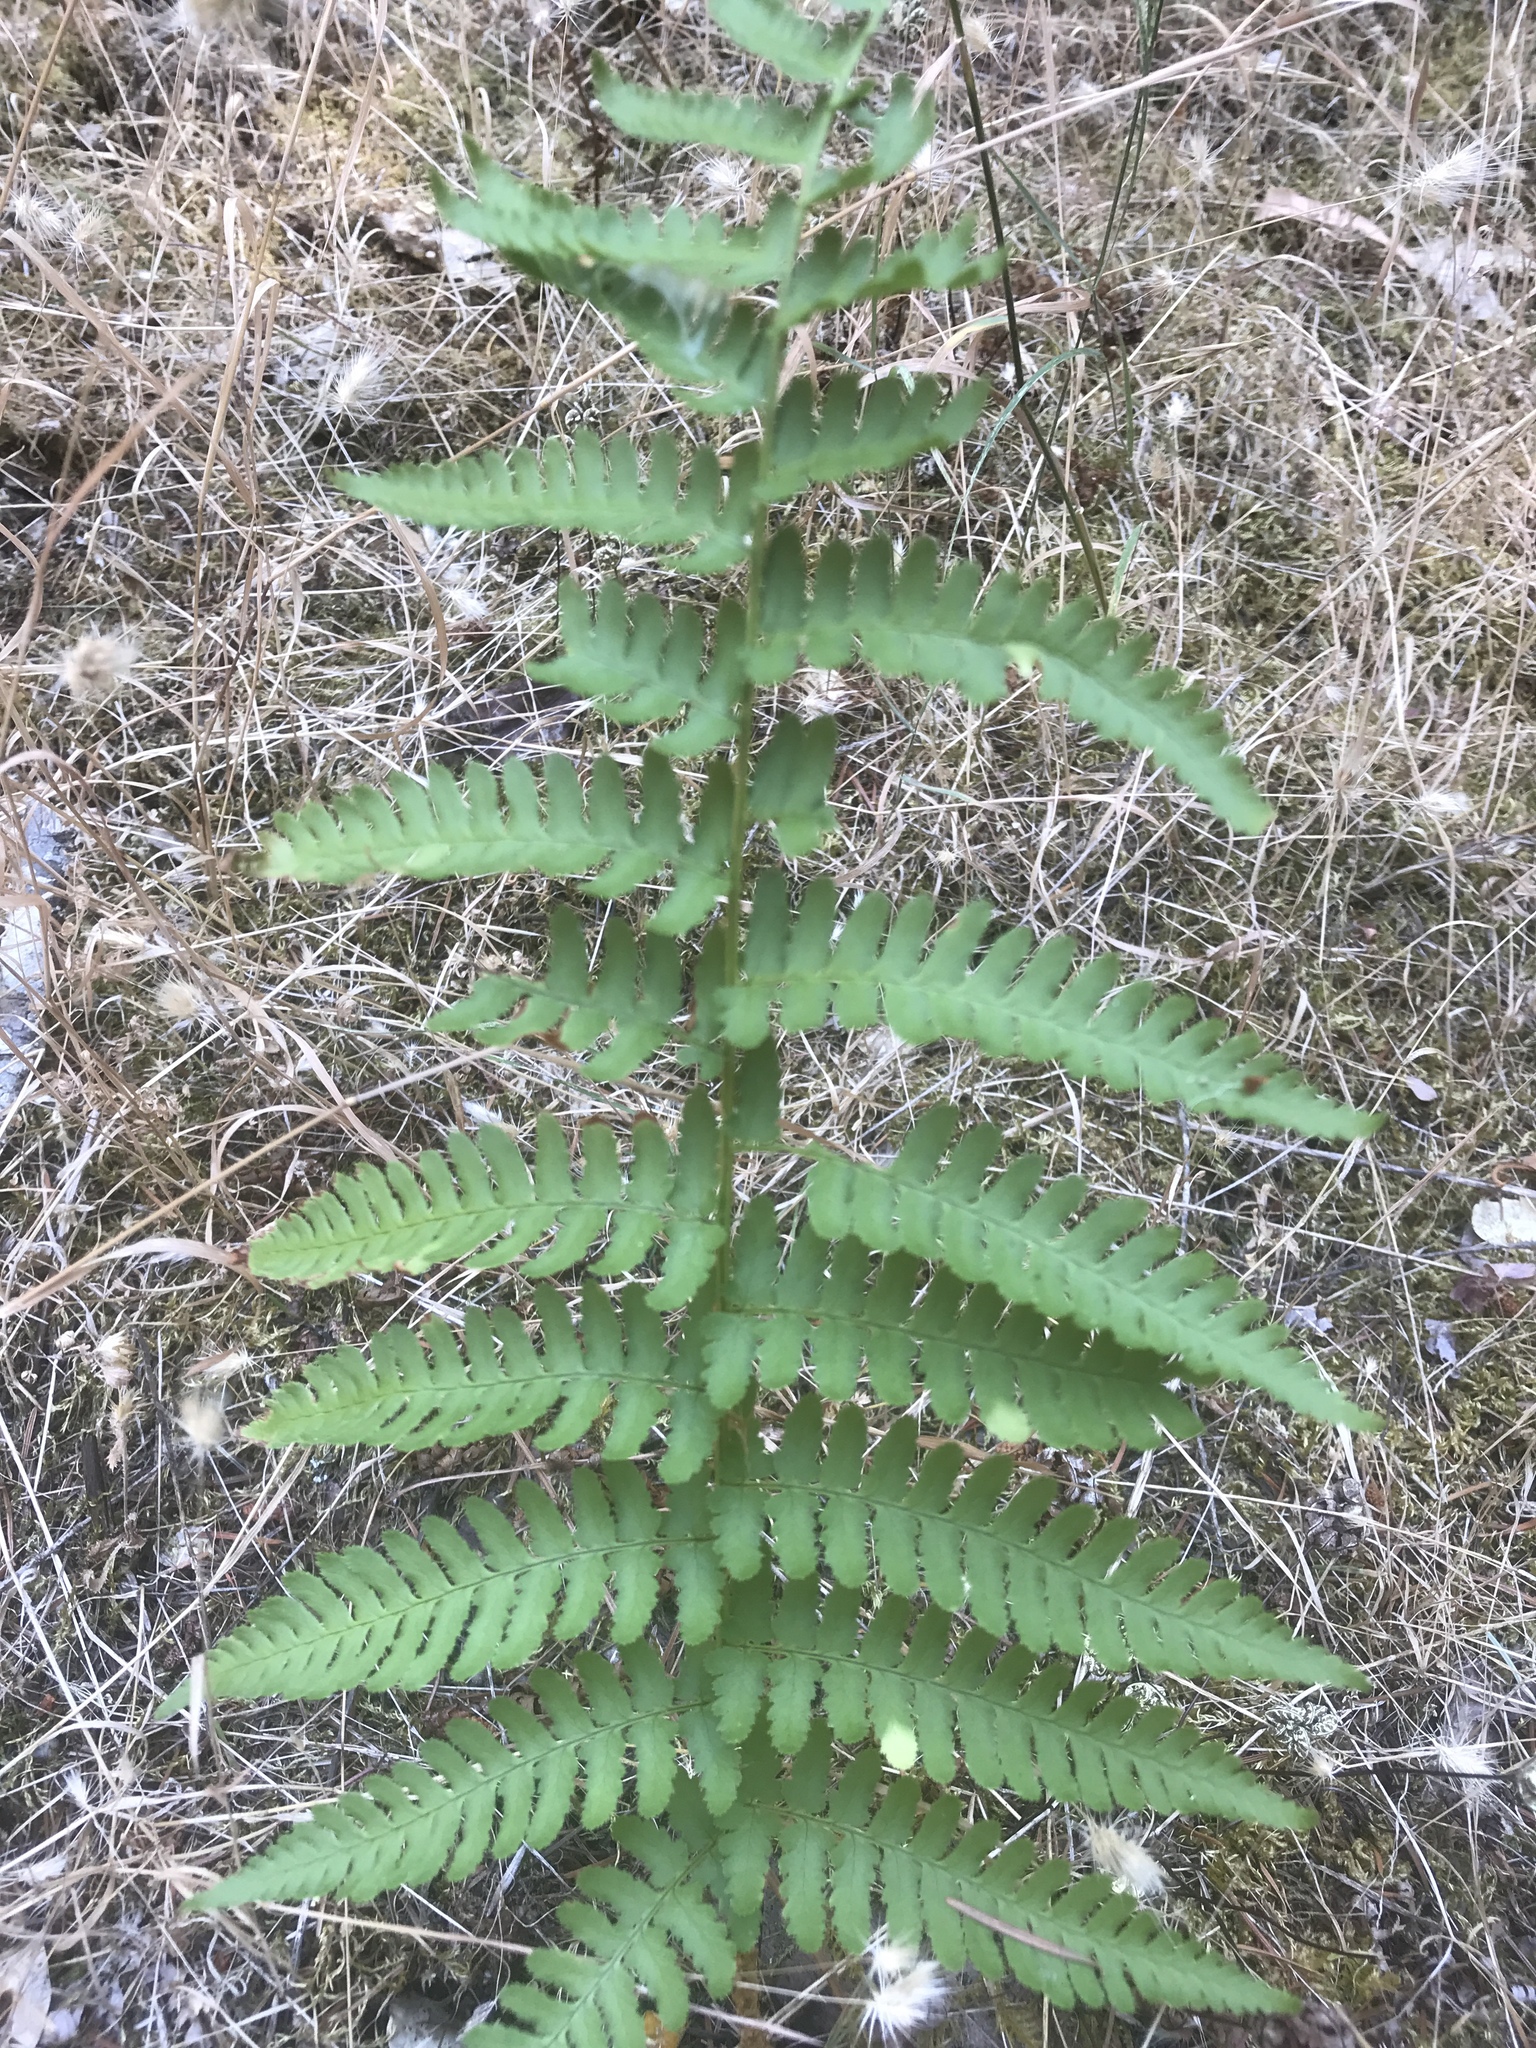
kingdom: Plantae
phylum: Tracheophyta
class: Polypodiopsida
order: Polypodiales
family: Dryopteridaceae
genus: Dryopteris
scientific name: Dryopteris arguta
